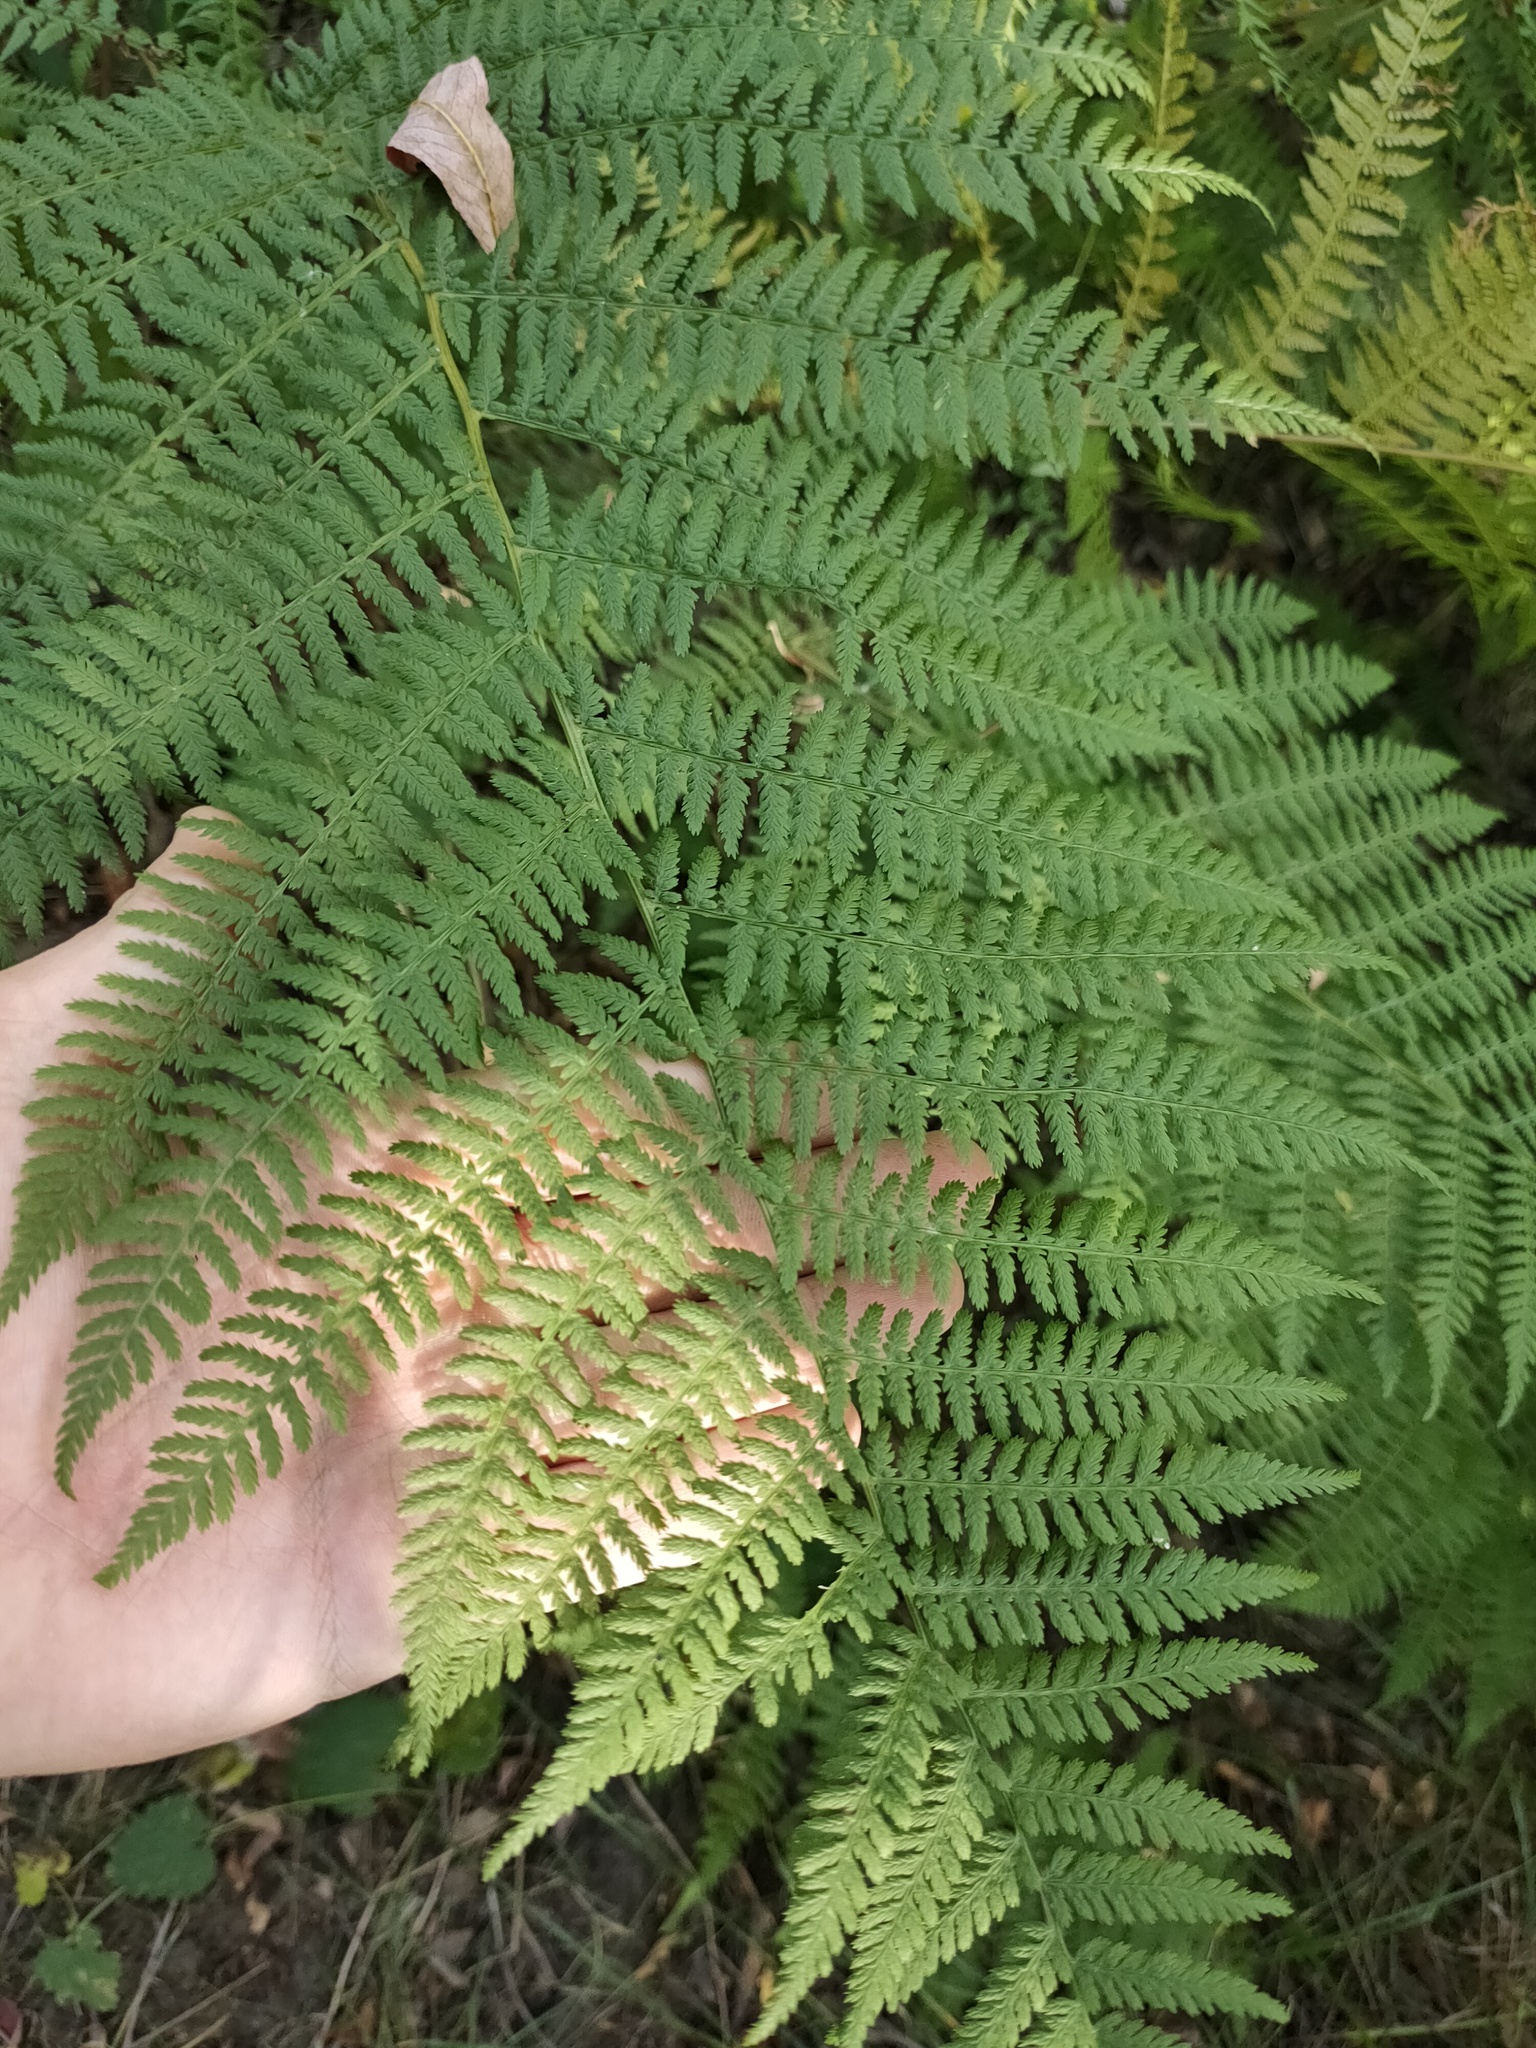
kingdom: Plantae
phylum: Tracheophyta
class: Polypodiopsida
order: Polypodiales
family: Athyriaceae
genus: Athyrium
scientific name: Athyrium filix-femina
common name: Lady fern
